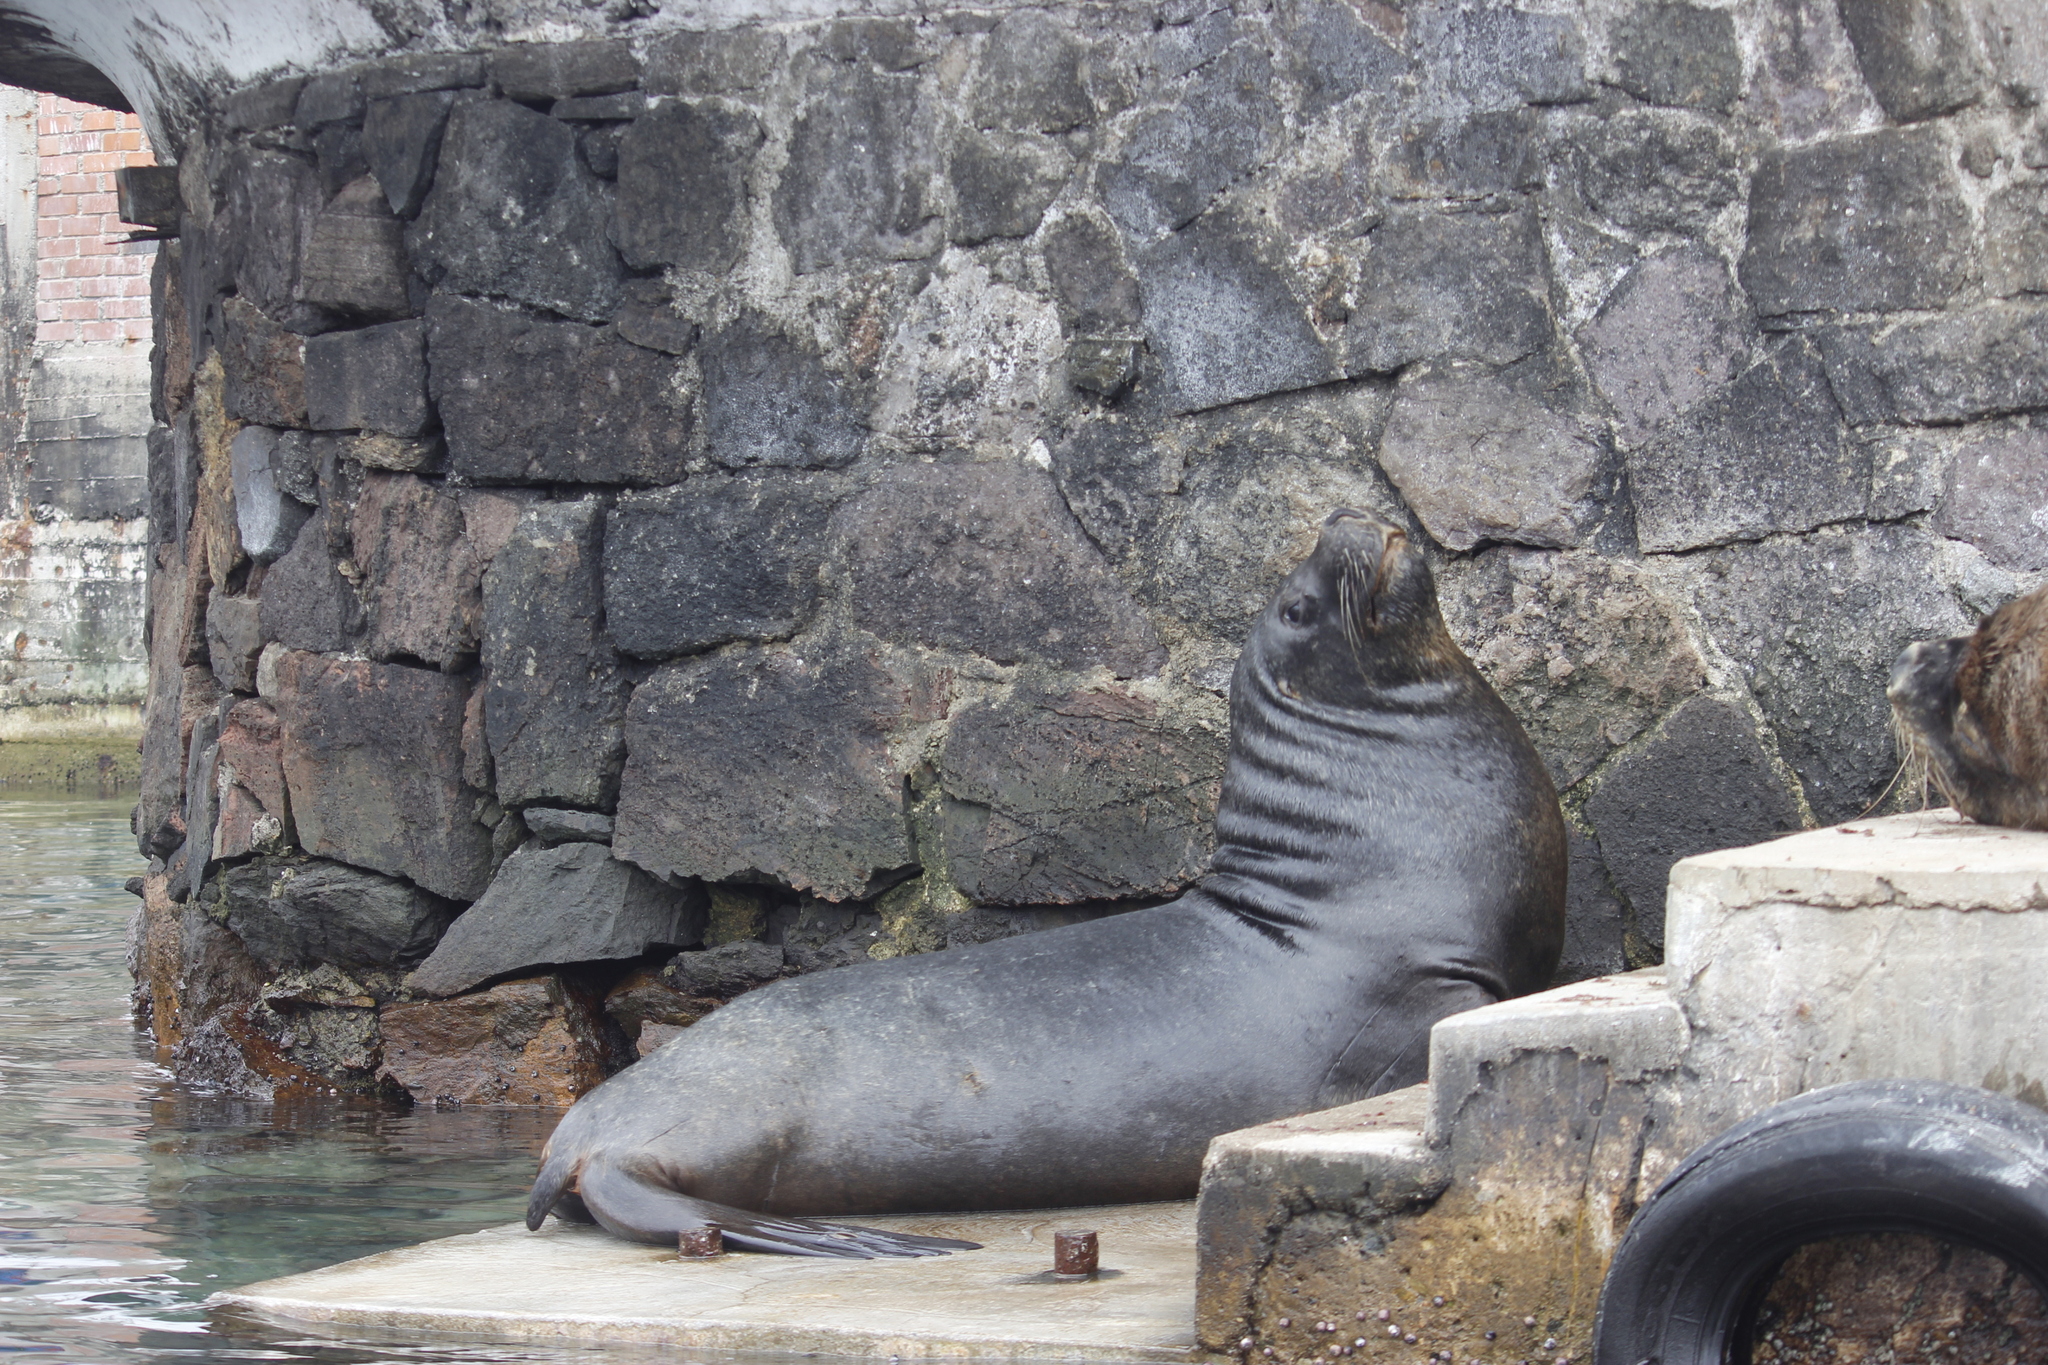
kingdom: Animalia
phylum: Chordata
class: Mammalia
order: Carnivora
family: Otariidae
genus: Otaria
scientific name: Otaria byronia
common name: South american sea lion
